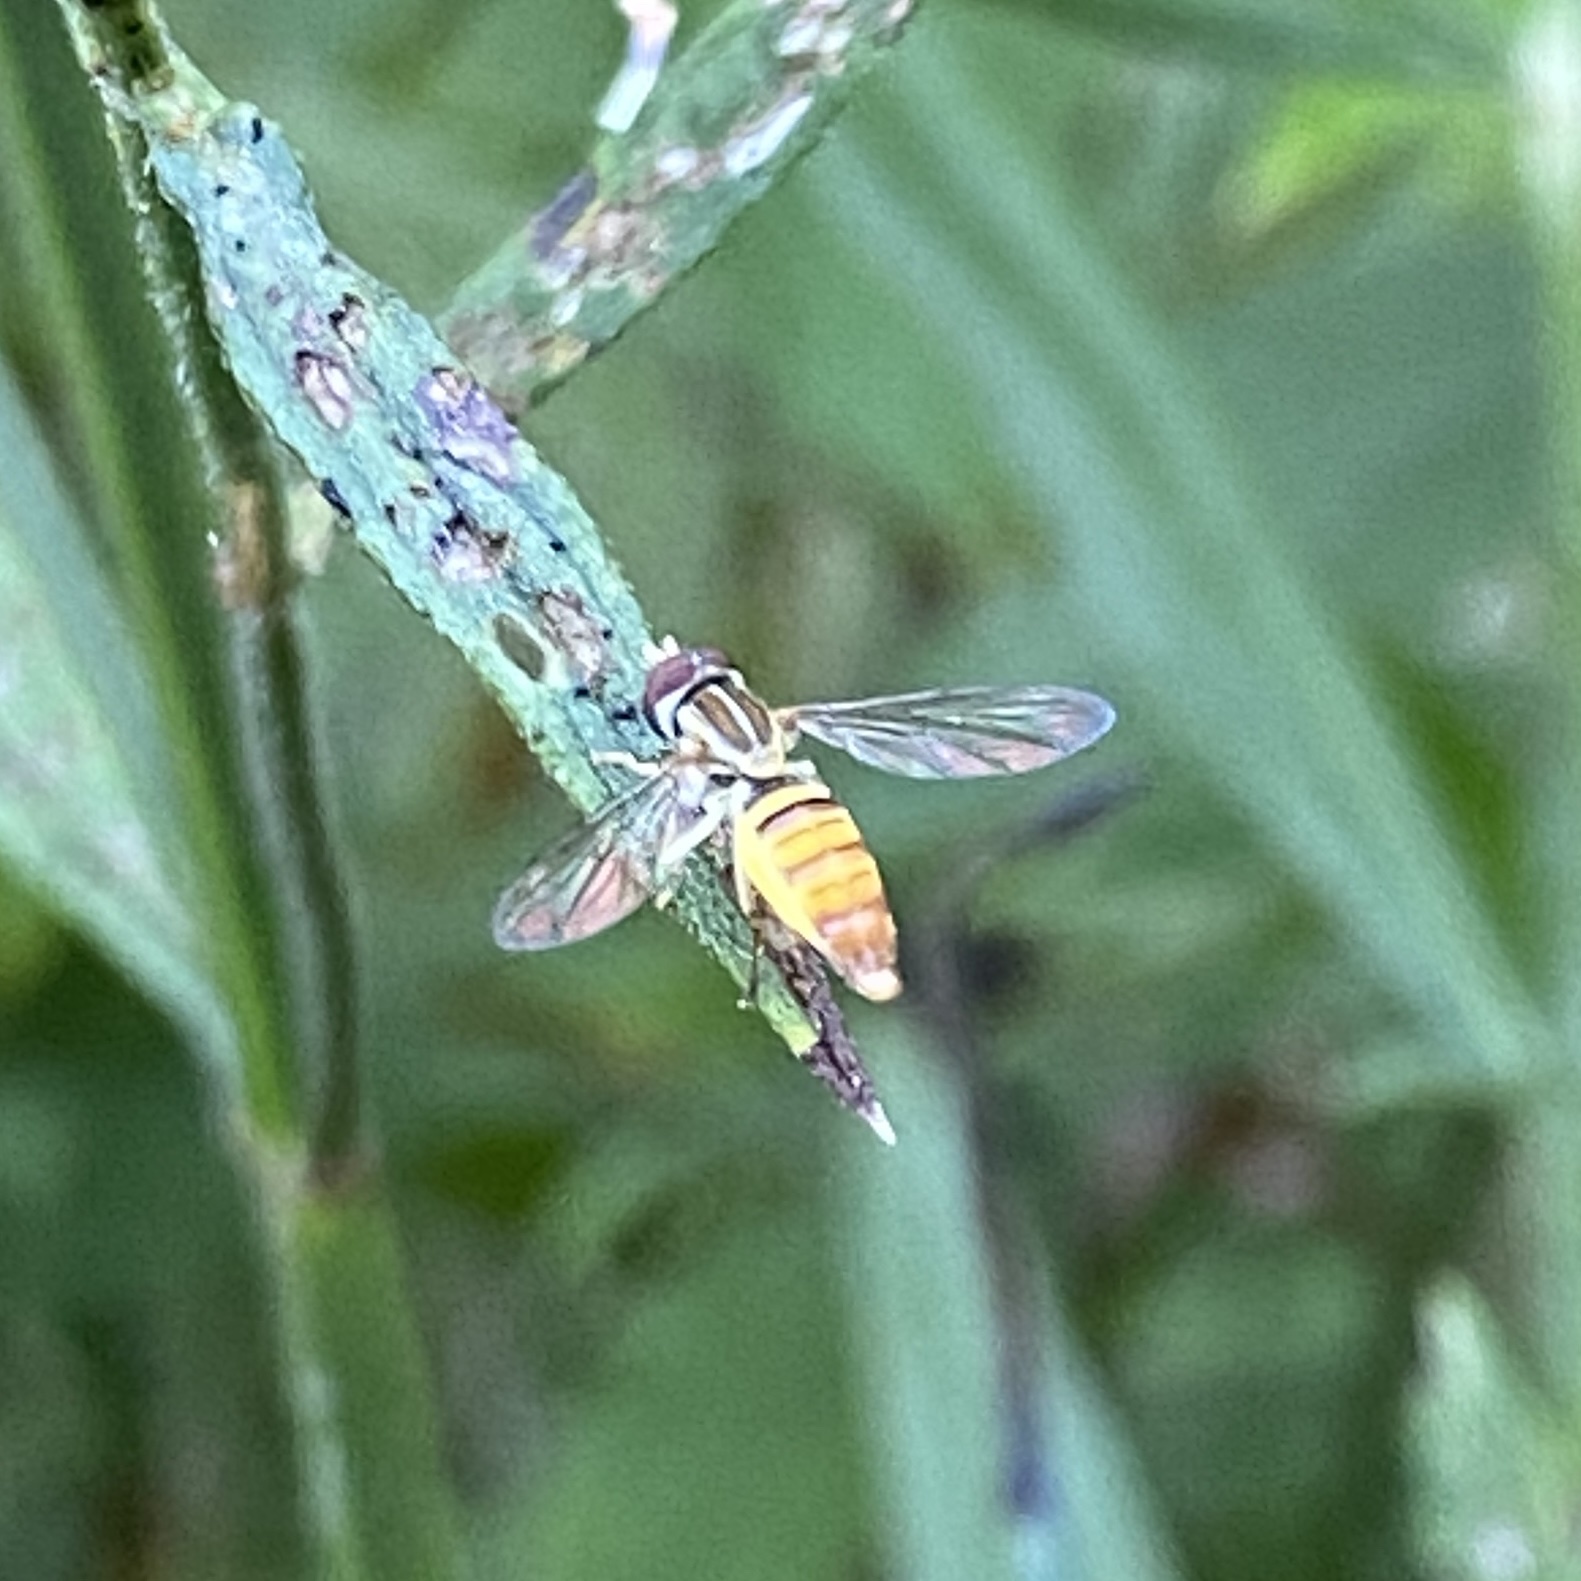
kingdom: Animalia
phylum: Arthropoda
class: Insecta
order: Diptera
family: Syrphidae
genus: Toxomerus
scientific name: Toxomerus politus
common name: Maize calligrapher
